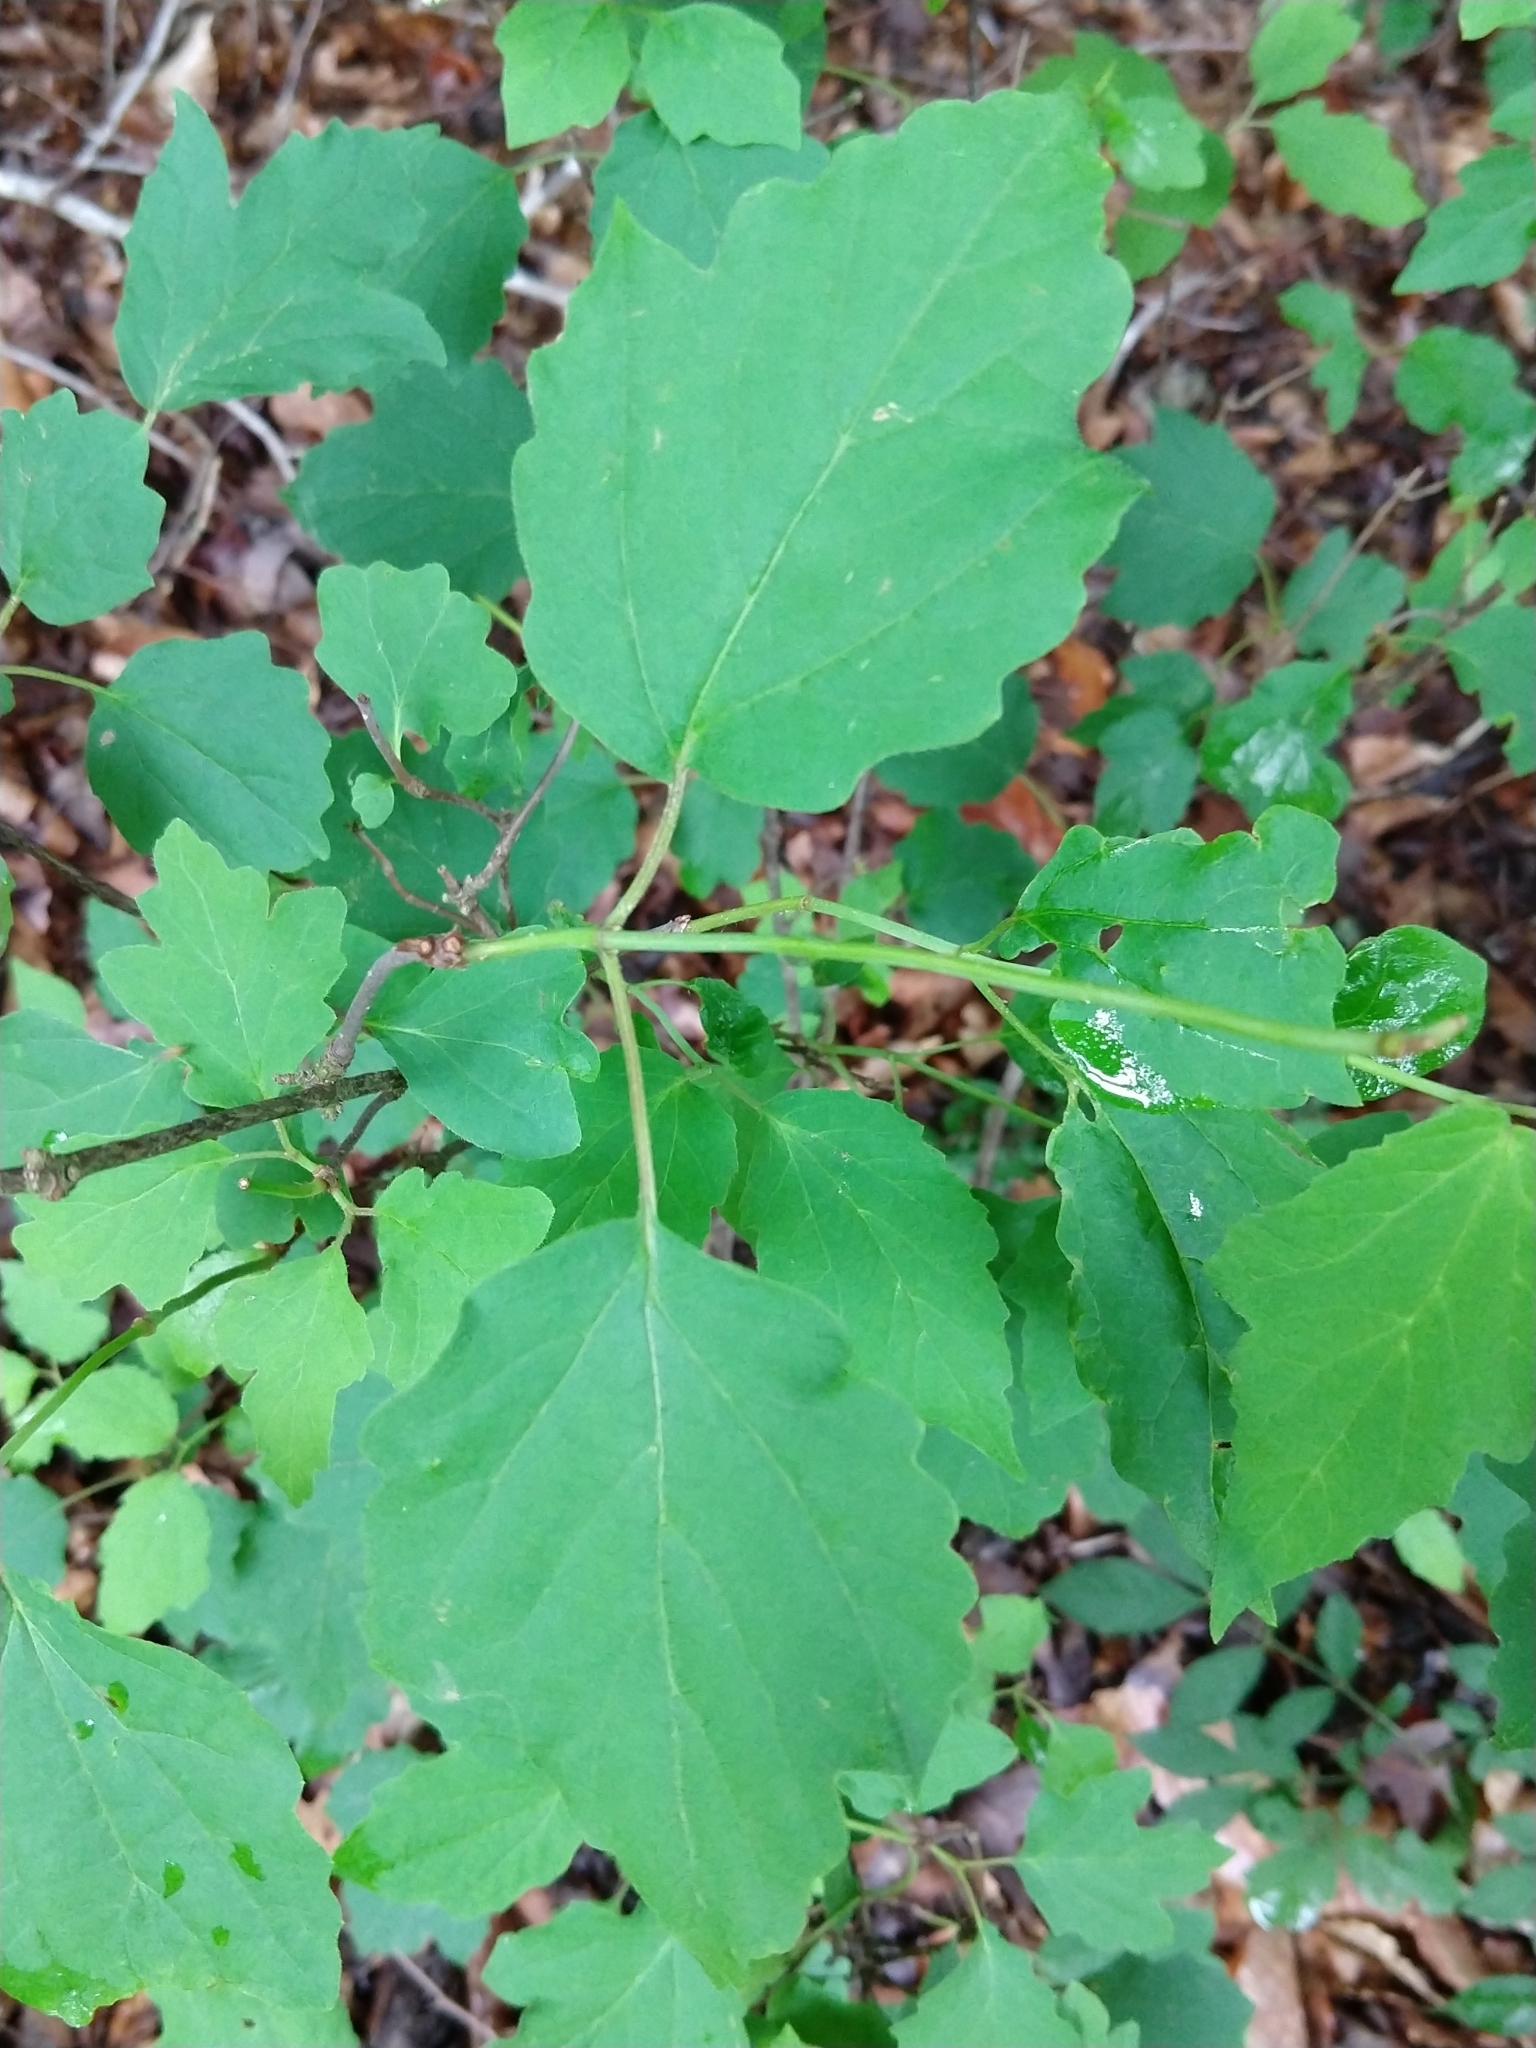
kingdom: Plantae
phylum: Tracheophyta
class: Magnoliopsida
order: Dipsacales
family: Viburnaceae
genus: Viburnum
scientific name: Viburnum acerifolium
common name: Dockmackie
